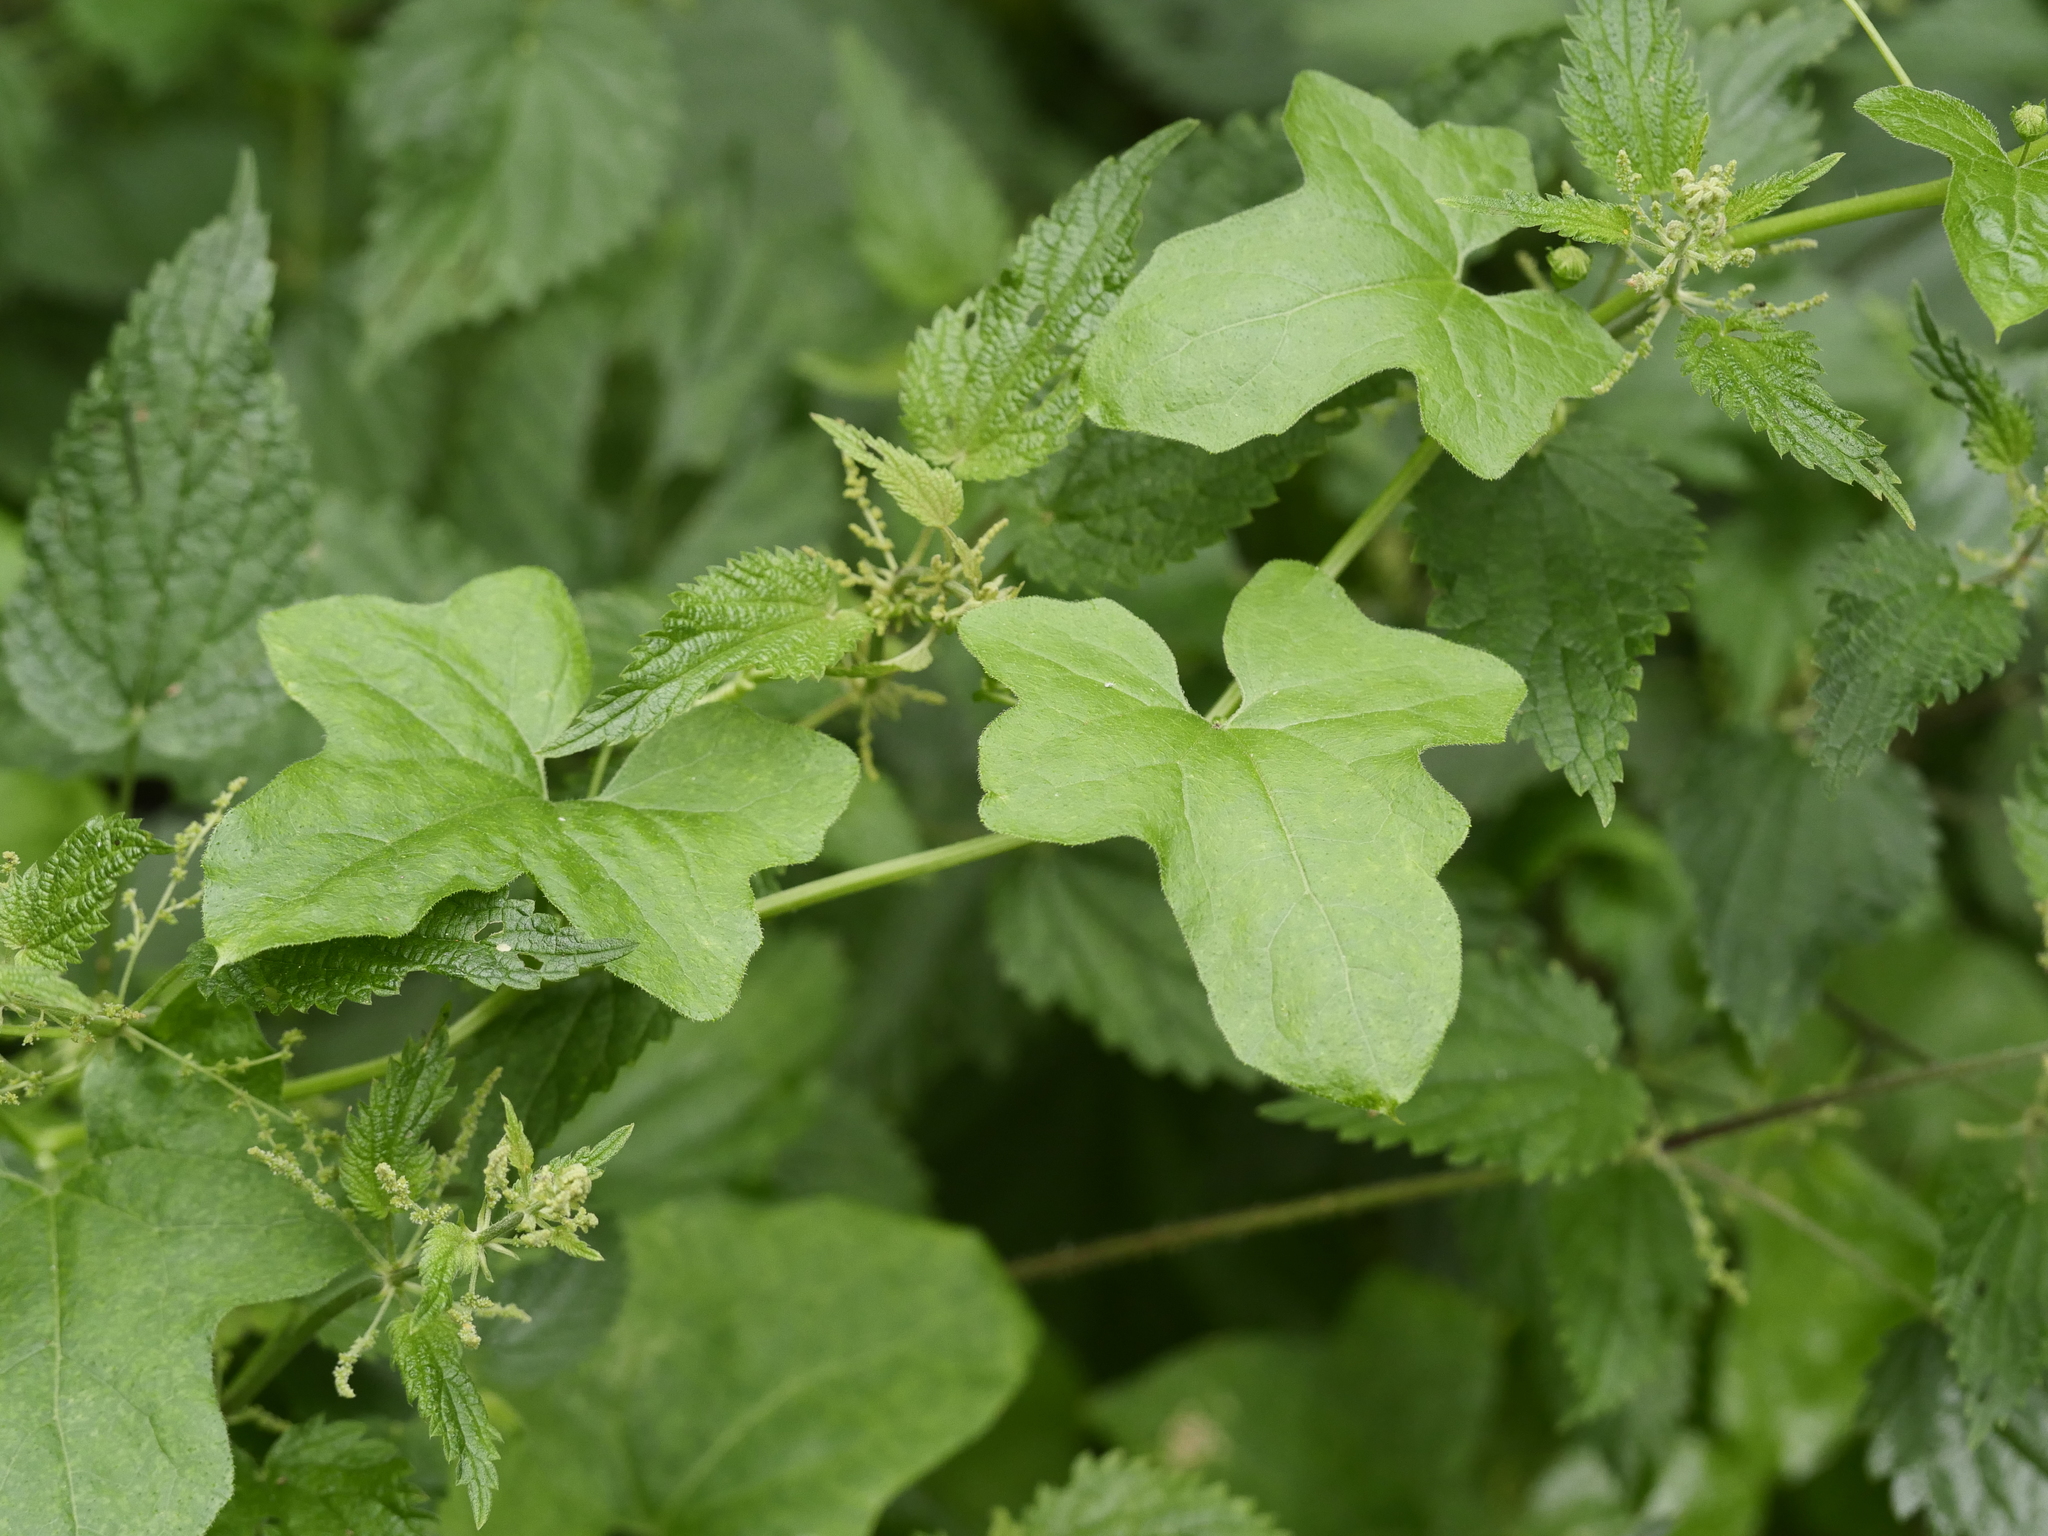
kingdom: Plantae
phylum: Tracheophyta
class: Magnoliopsida
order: Cucurbitales
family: Cucurbitaceae
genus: Bryonia
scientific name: Bryonia cretica
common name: Cretan bryony
